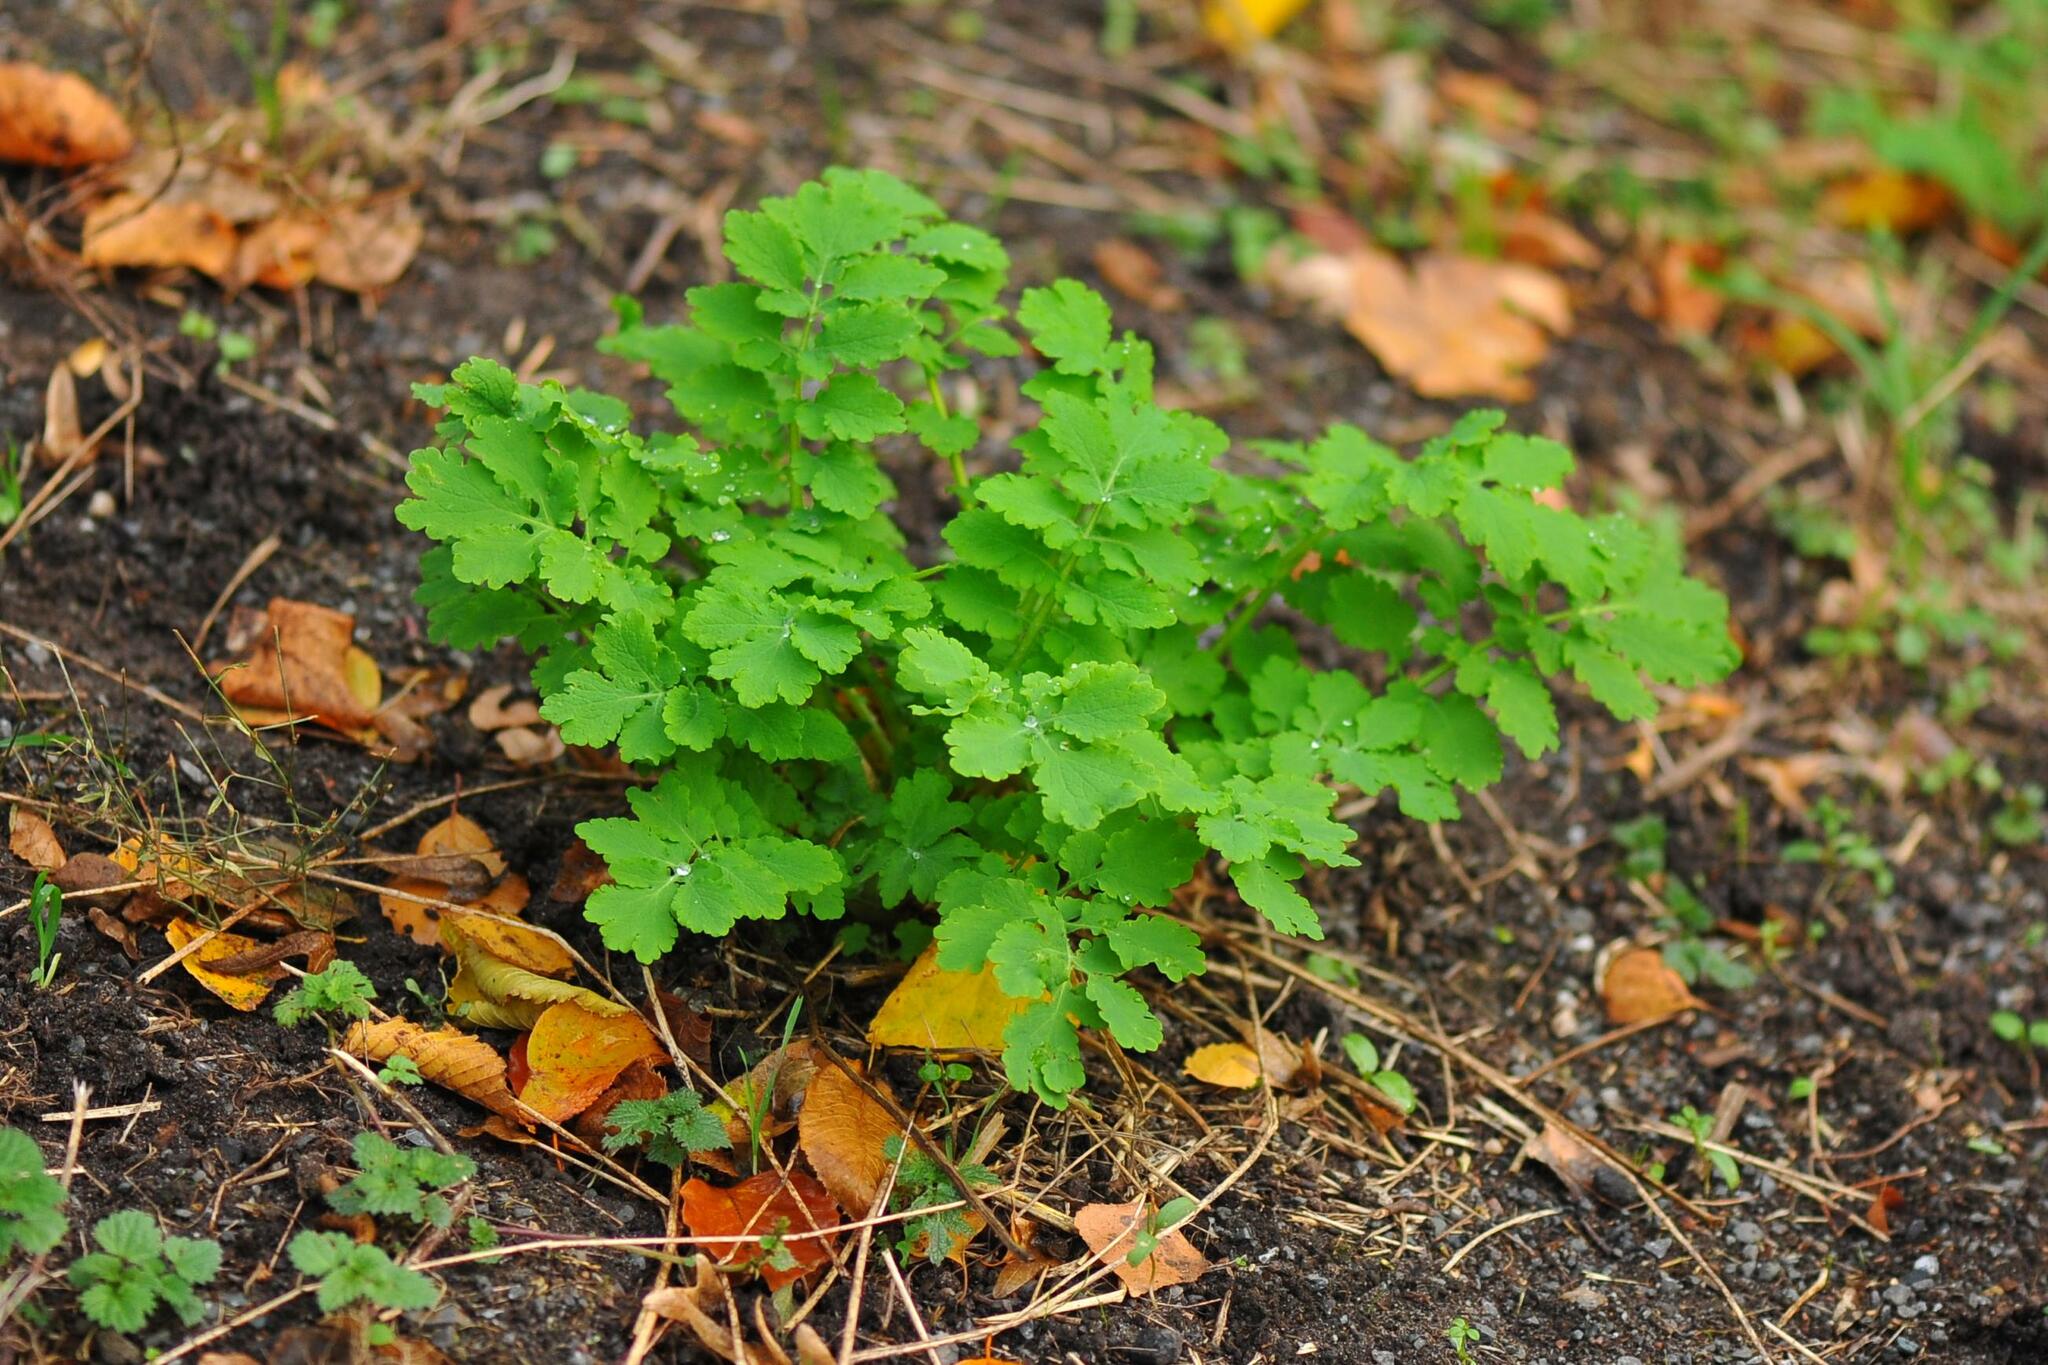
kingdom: Plantae
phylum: Tracheophyta
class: Magnoliopsida
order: Ranunculales
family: Papaveraceae
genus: Chelidonium
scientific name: Chelidonium majus
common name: Greater celandine
